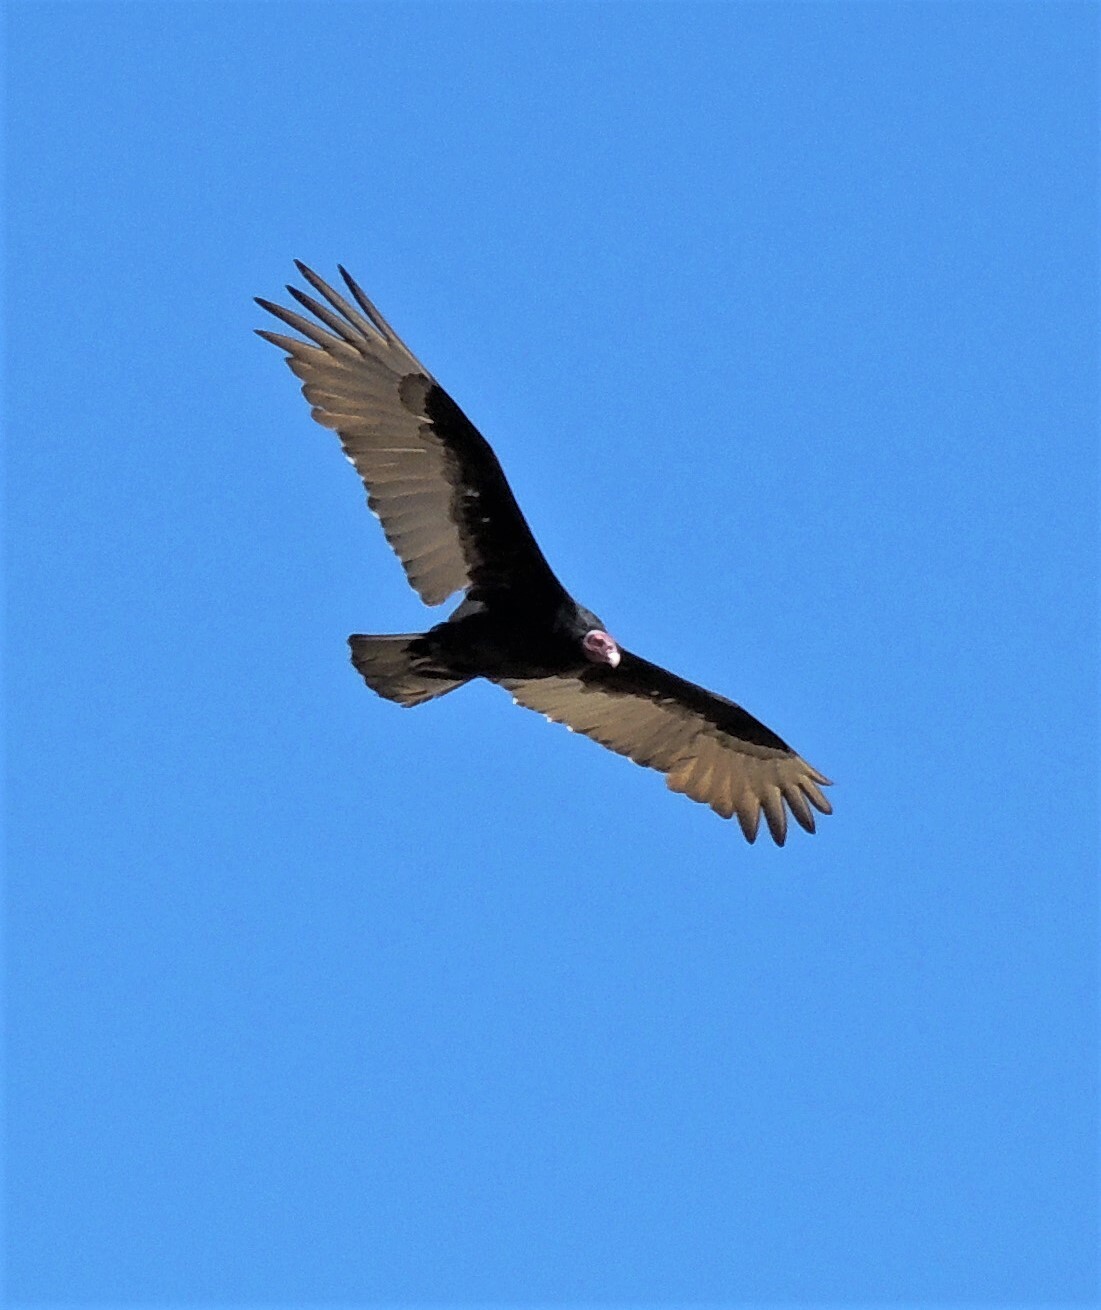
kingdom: Animalia
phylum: Chordata
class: Aves
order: Accipitriformes
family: Cathartidae
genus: Cathartes
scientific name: Cathartes aura
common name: Turkey vulture
